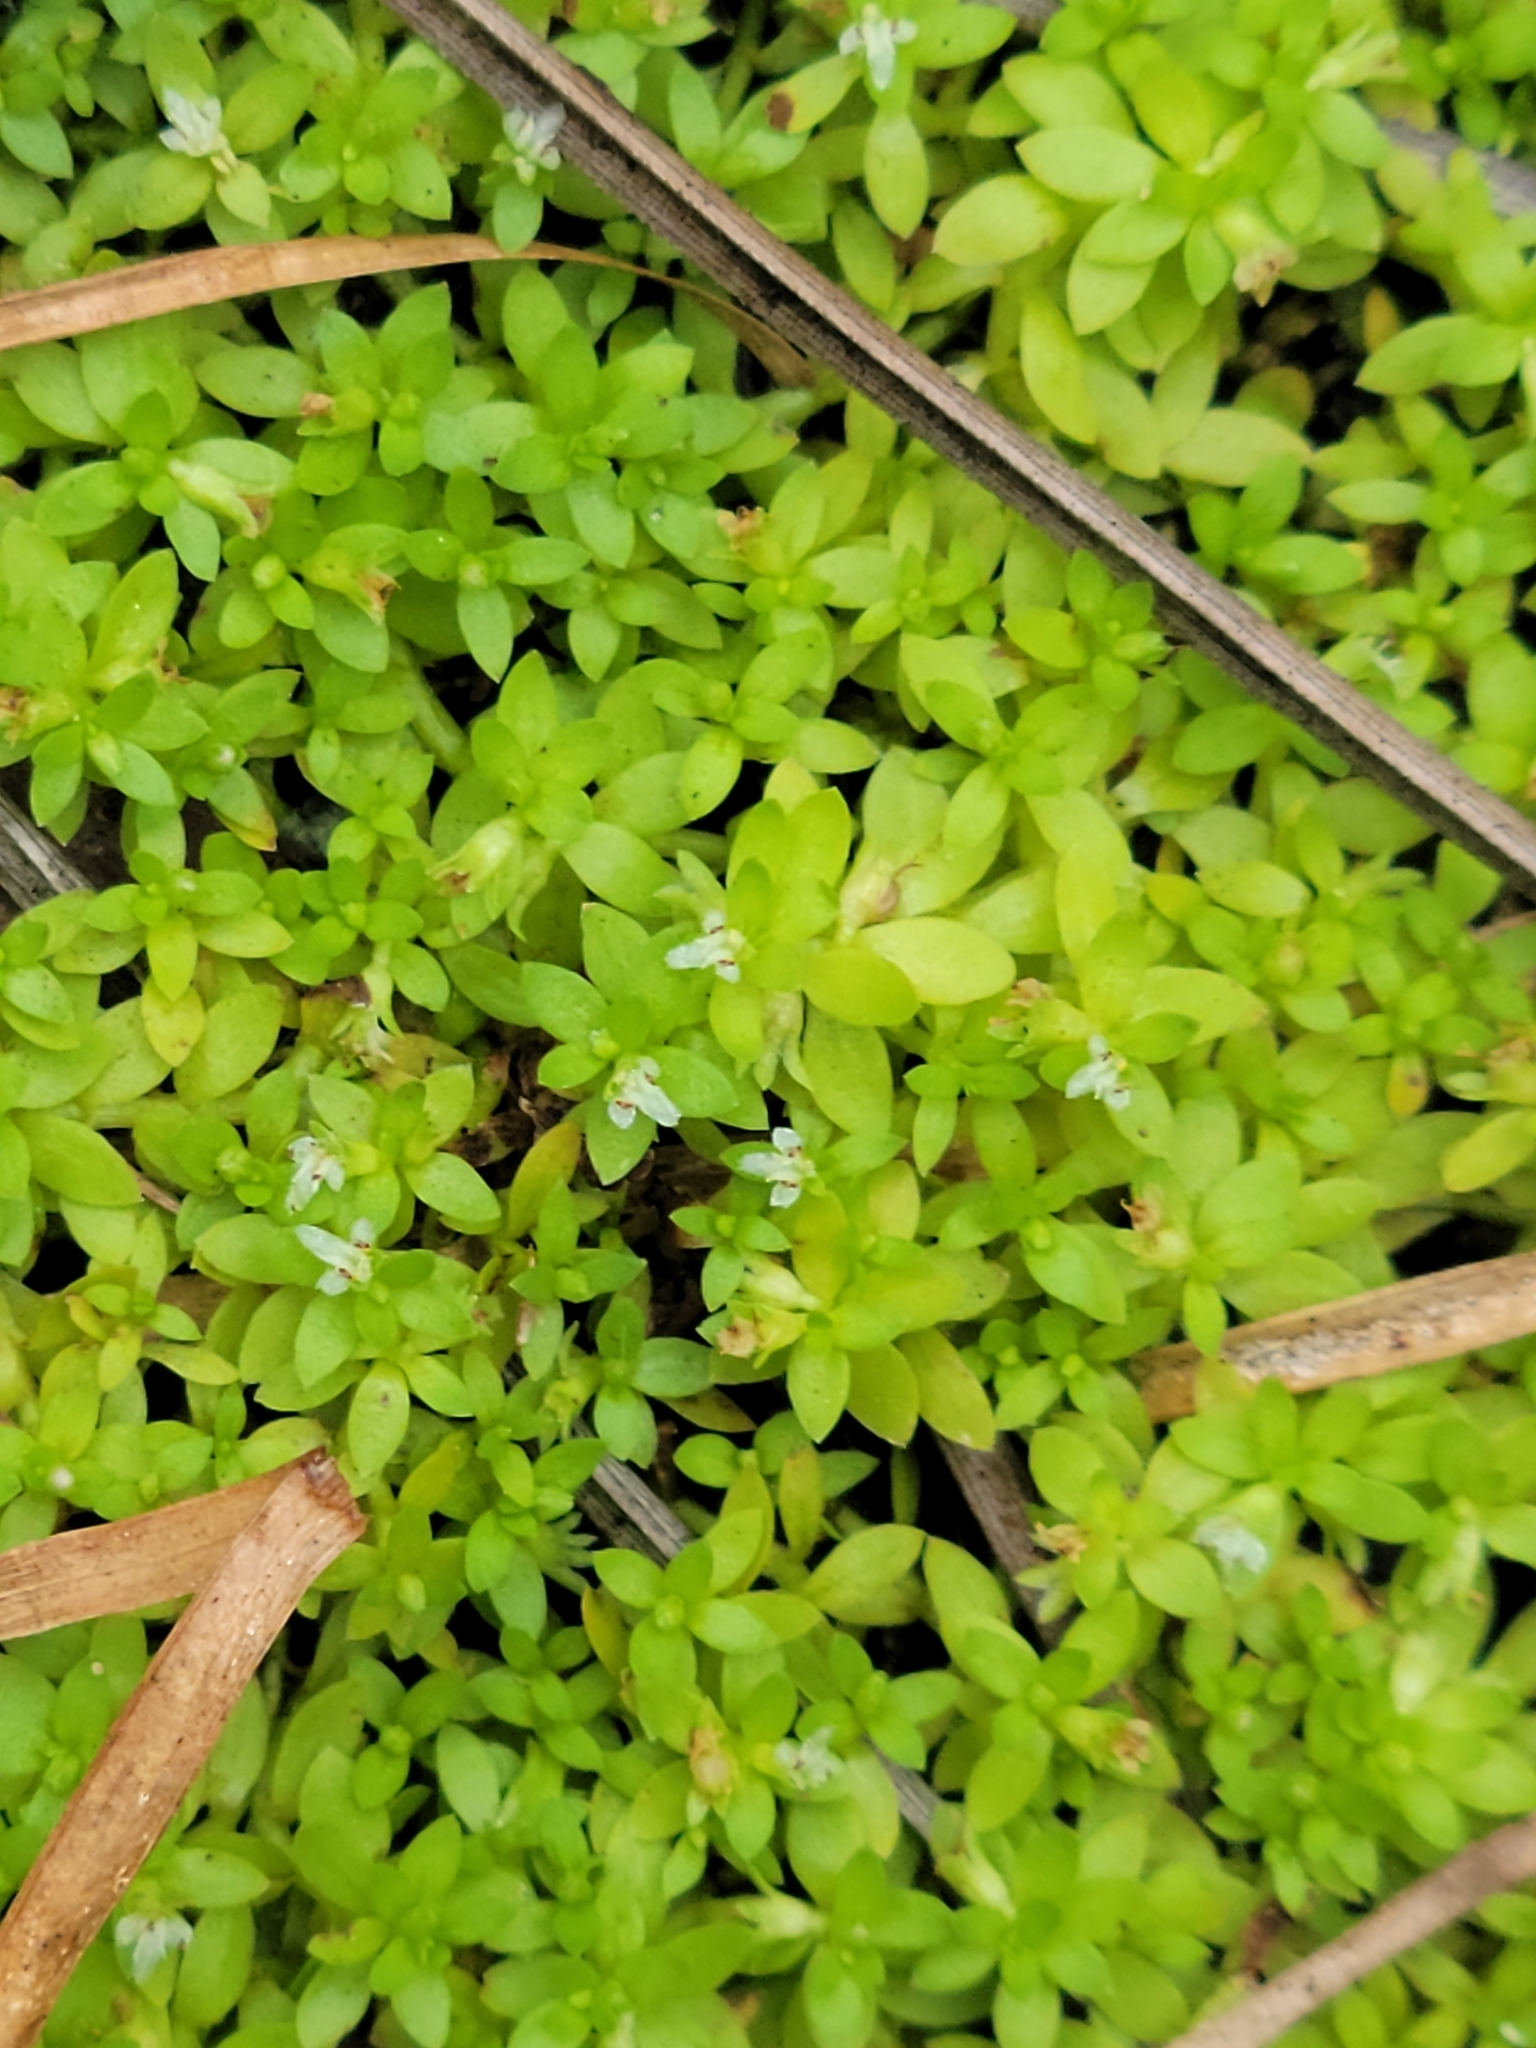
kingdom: Plantae
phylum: Tracheophyta
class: Magnoliopsida
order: Lamiales
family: Linderniaceae
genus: Micranthemum
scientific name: Micranthemum glomeratum
